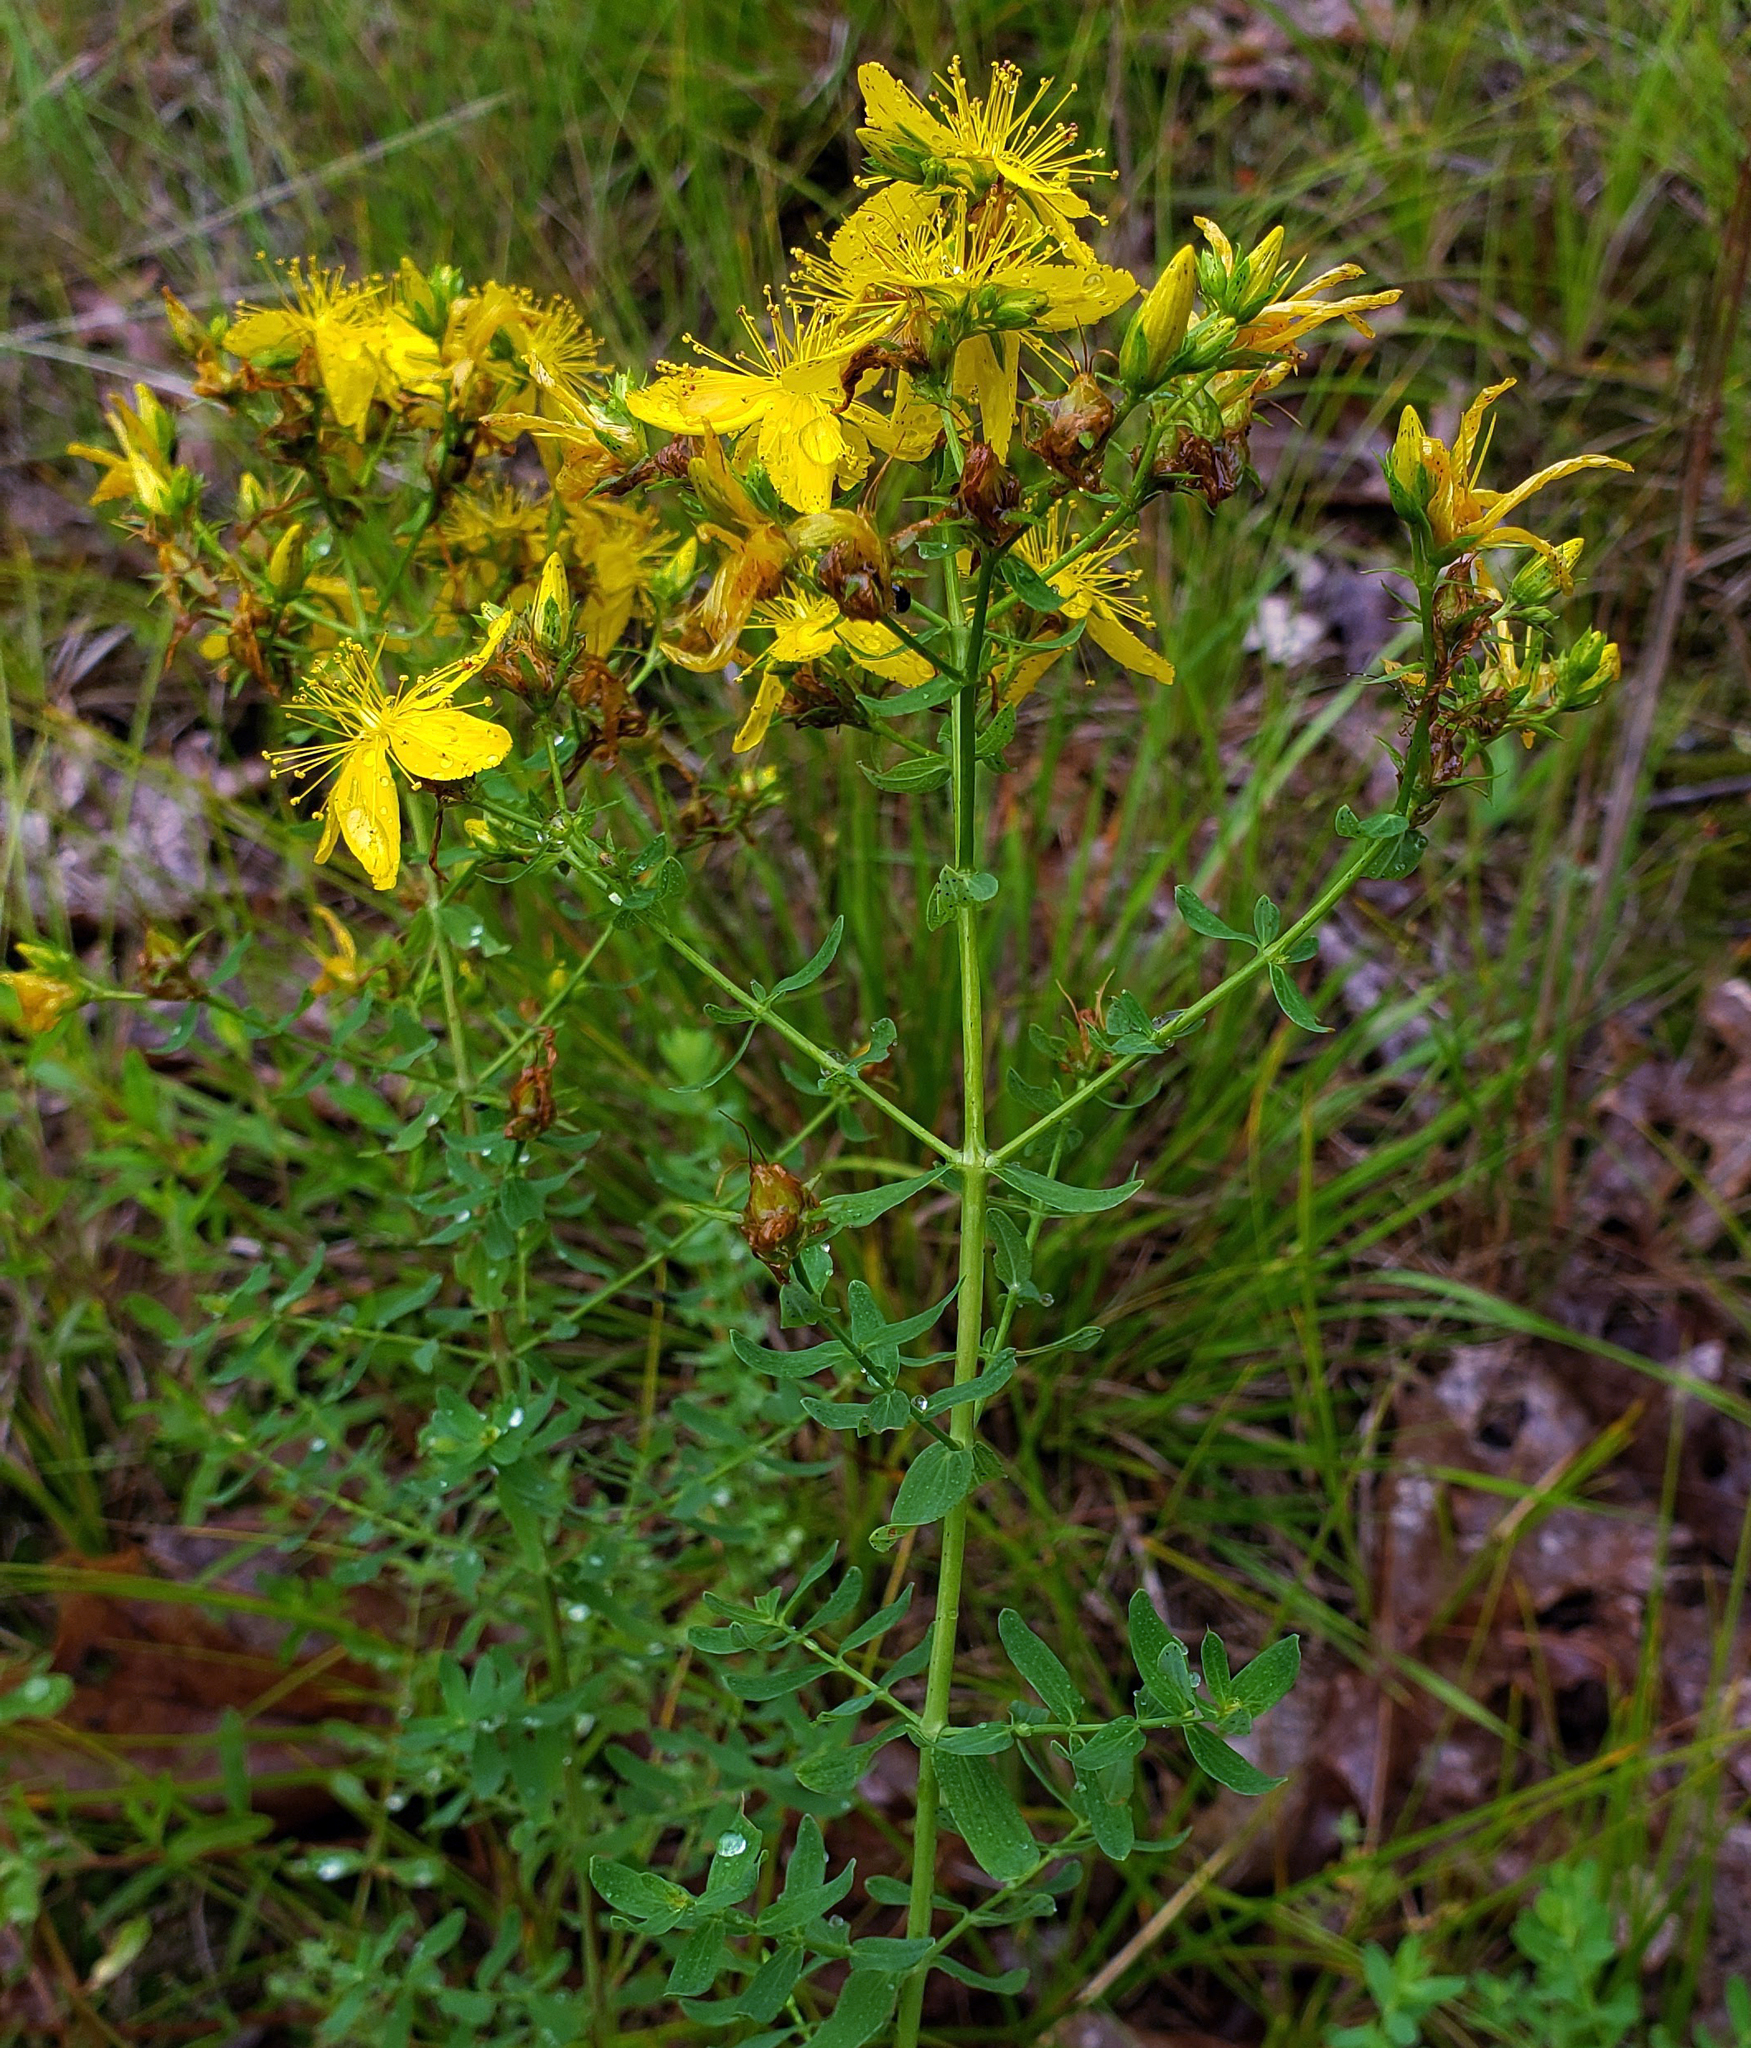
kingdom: Plantae
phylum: Tracheophyta
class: Magnoliopsida
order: Malpighiales
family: Hypericaceae
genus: Hypericum
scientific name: Hypericum perforatum
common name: Common st. johnswort
